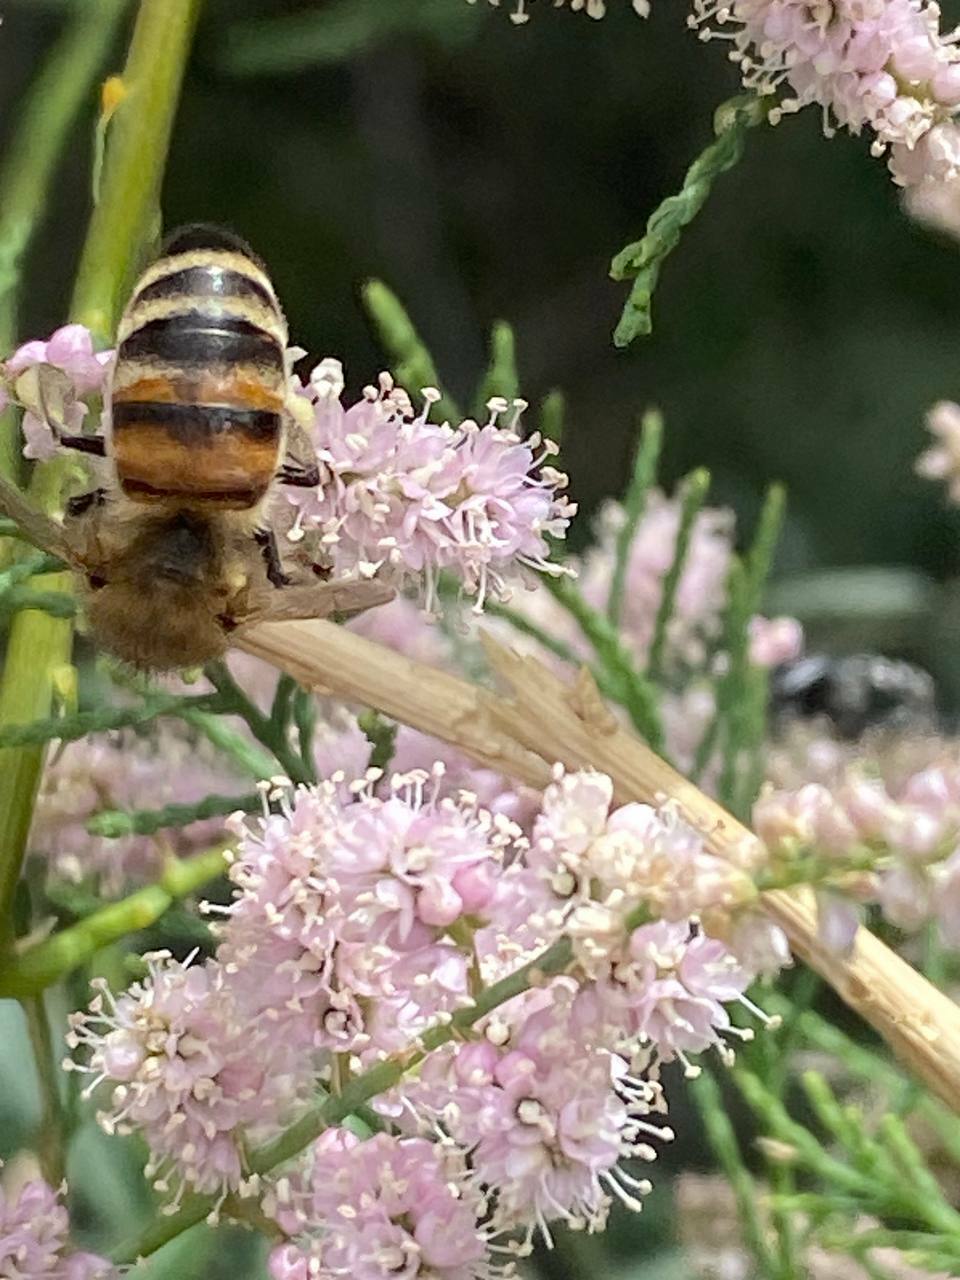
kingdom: Animalia
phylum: Arthropoda
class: Insecta
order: Hymenoptera
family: Apidae
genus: Apis
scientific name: Apis mellifera
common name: Honey bee
